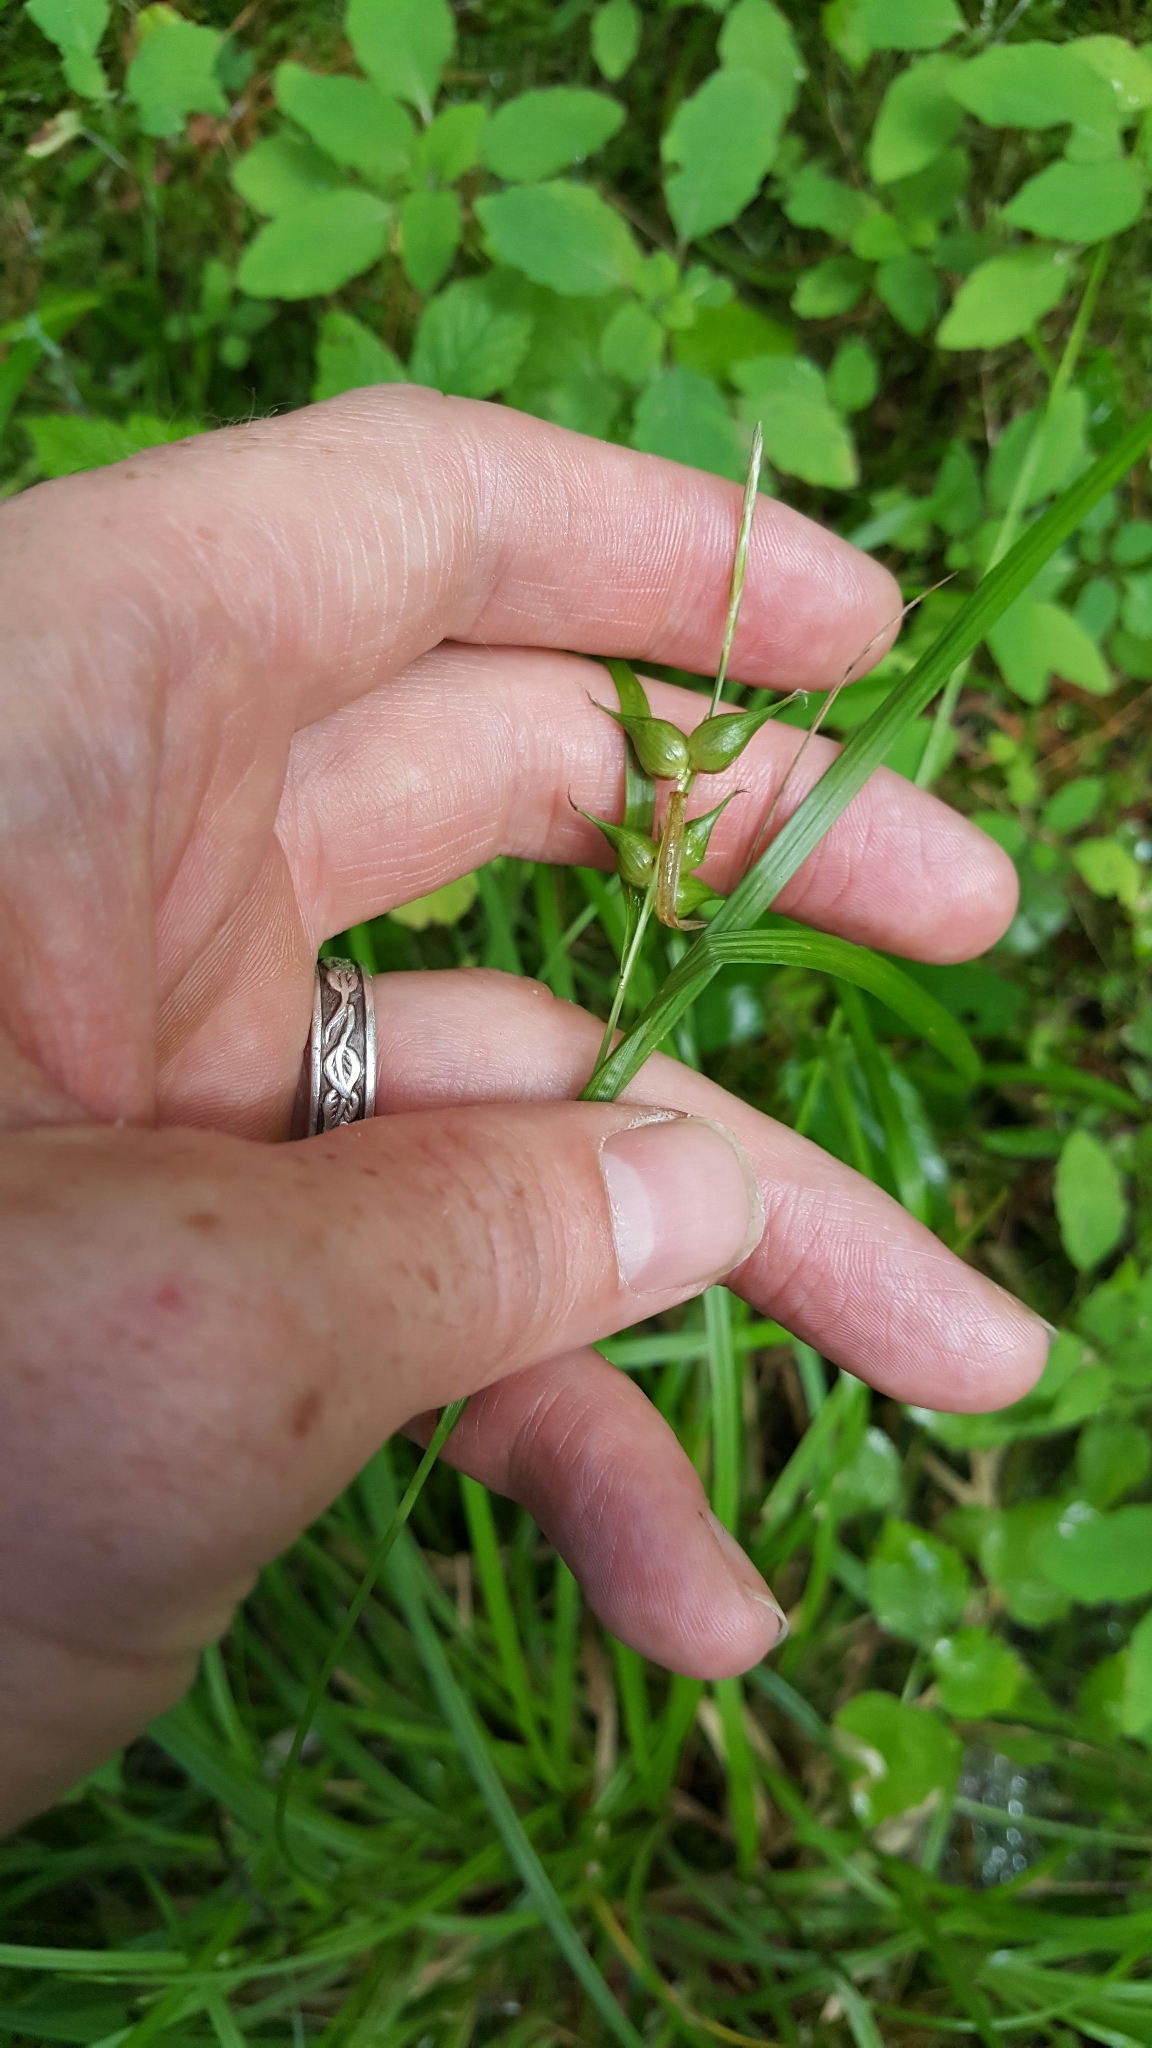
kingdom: Plantae
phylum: Tracheophyta
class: Liliopsida
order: Poales
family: Cyperaceae
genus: Carex
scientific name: Carex intumescens
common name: Greater bladder sedge
